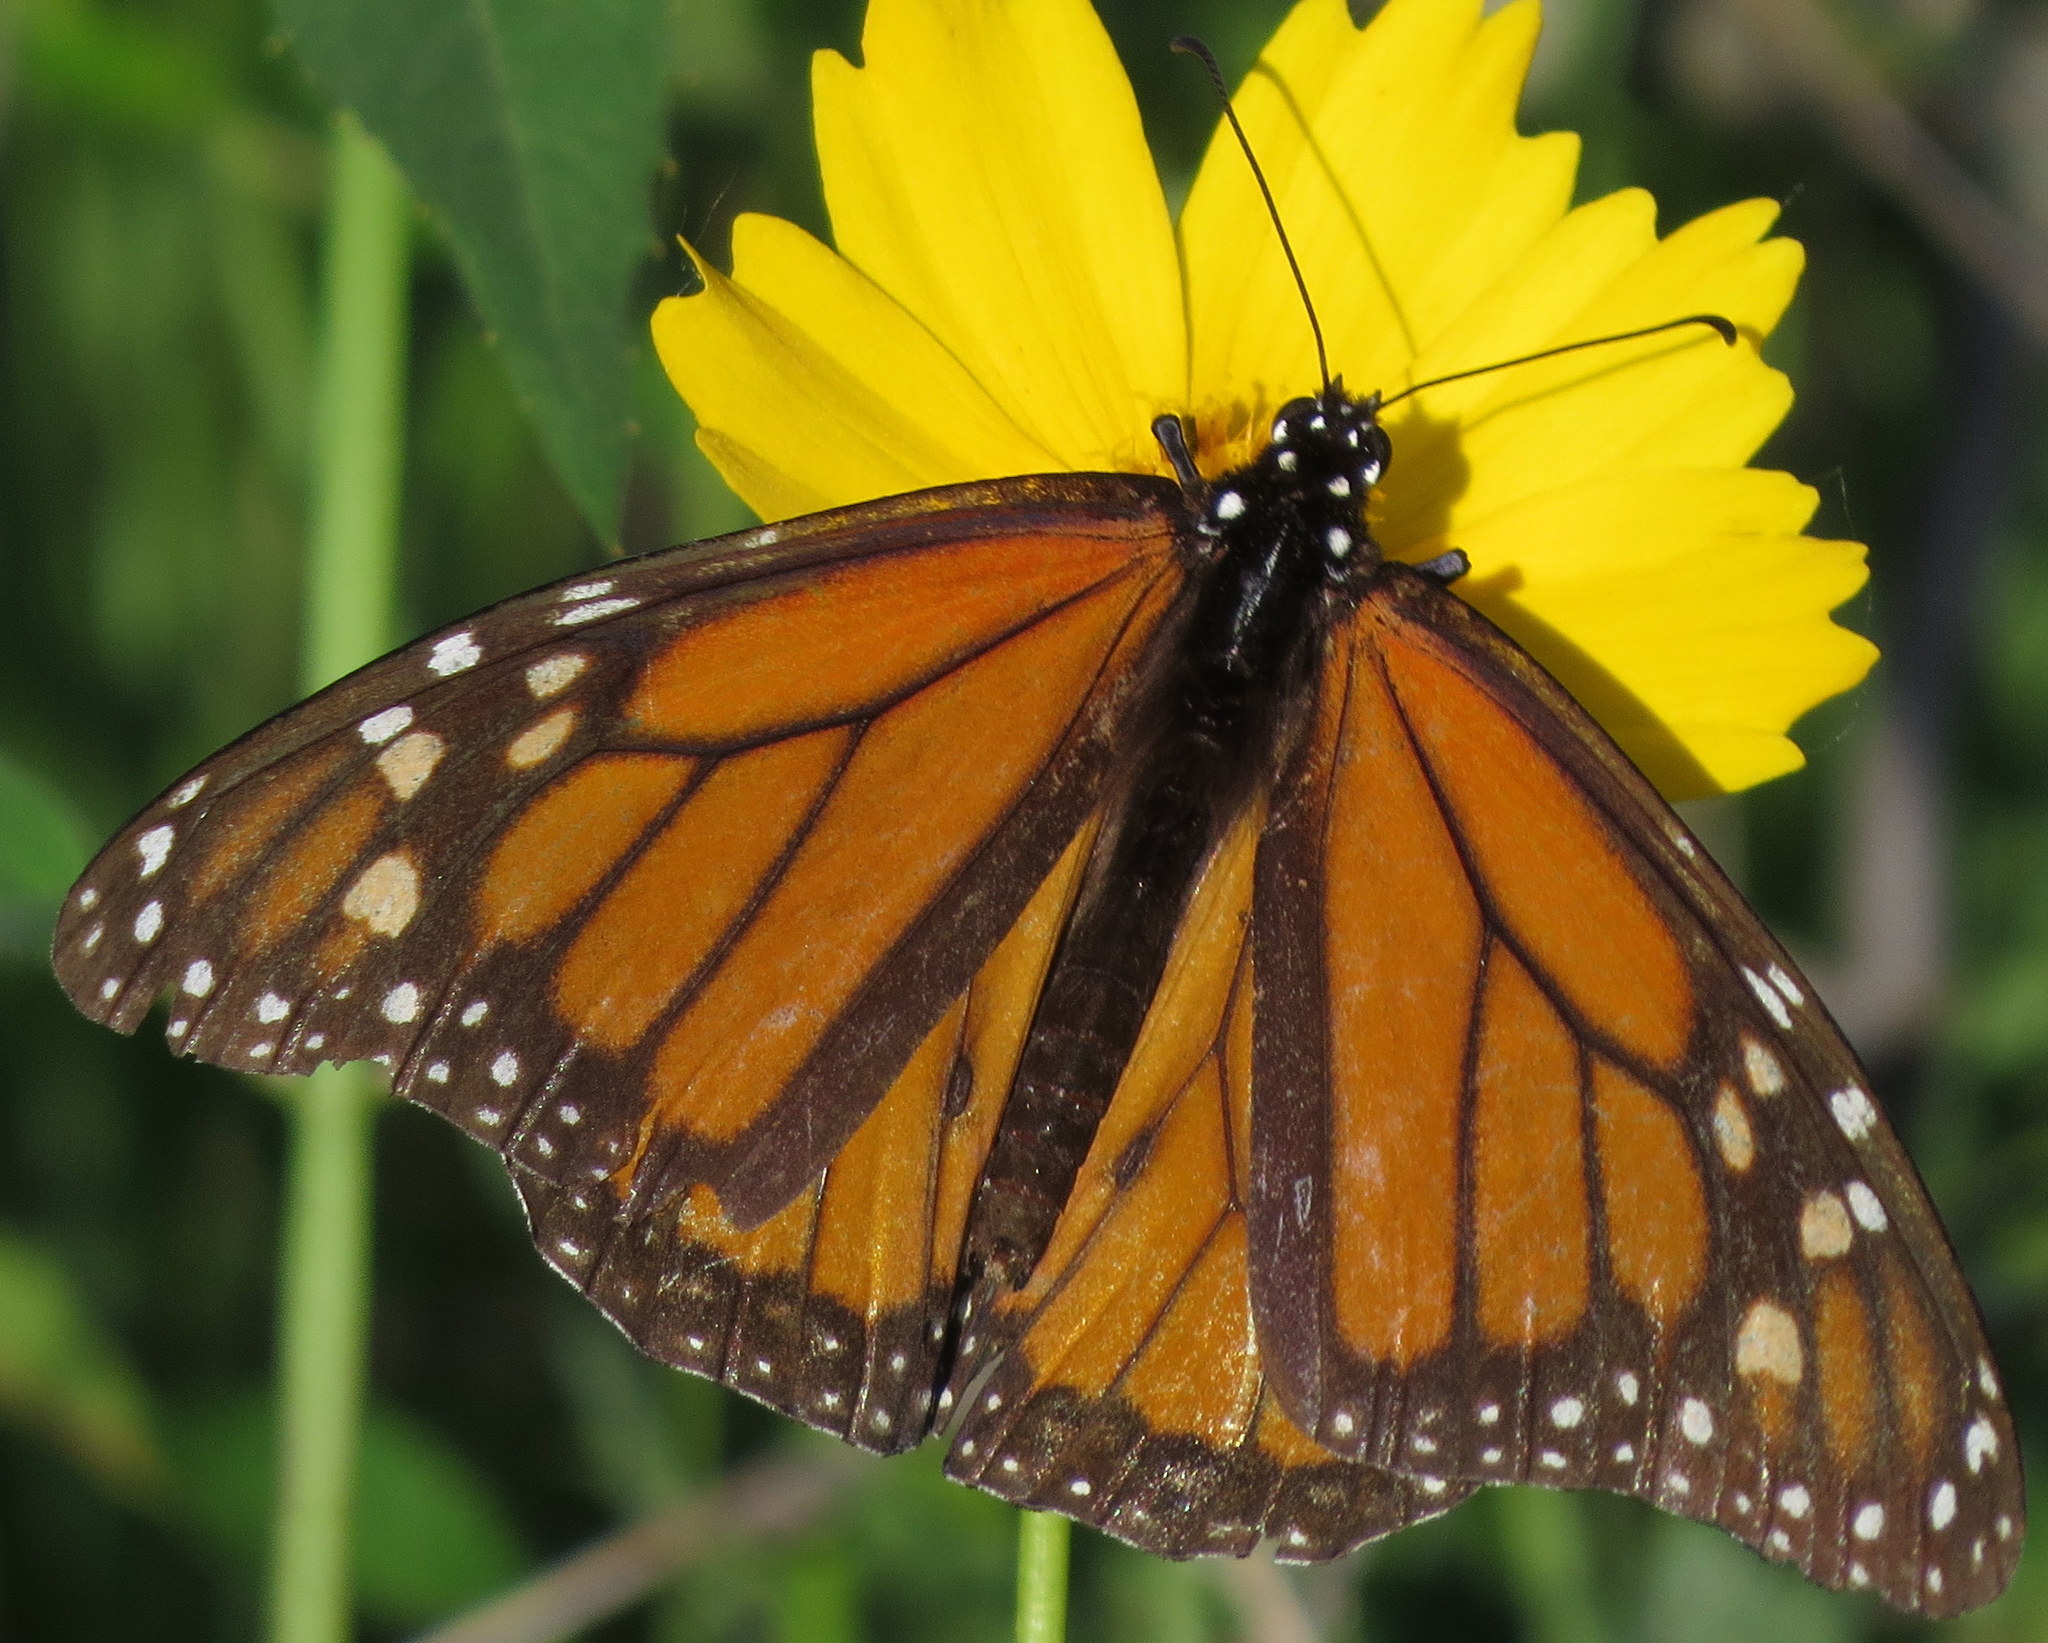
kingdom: Animalia
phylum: Arthropoda
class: Insecta
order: Lepidoptera
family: Nymphalidae
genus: Danaus
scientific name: Danaus plexippus
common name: Monarch
